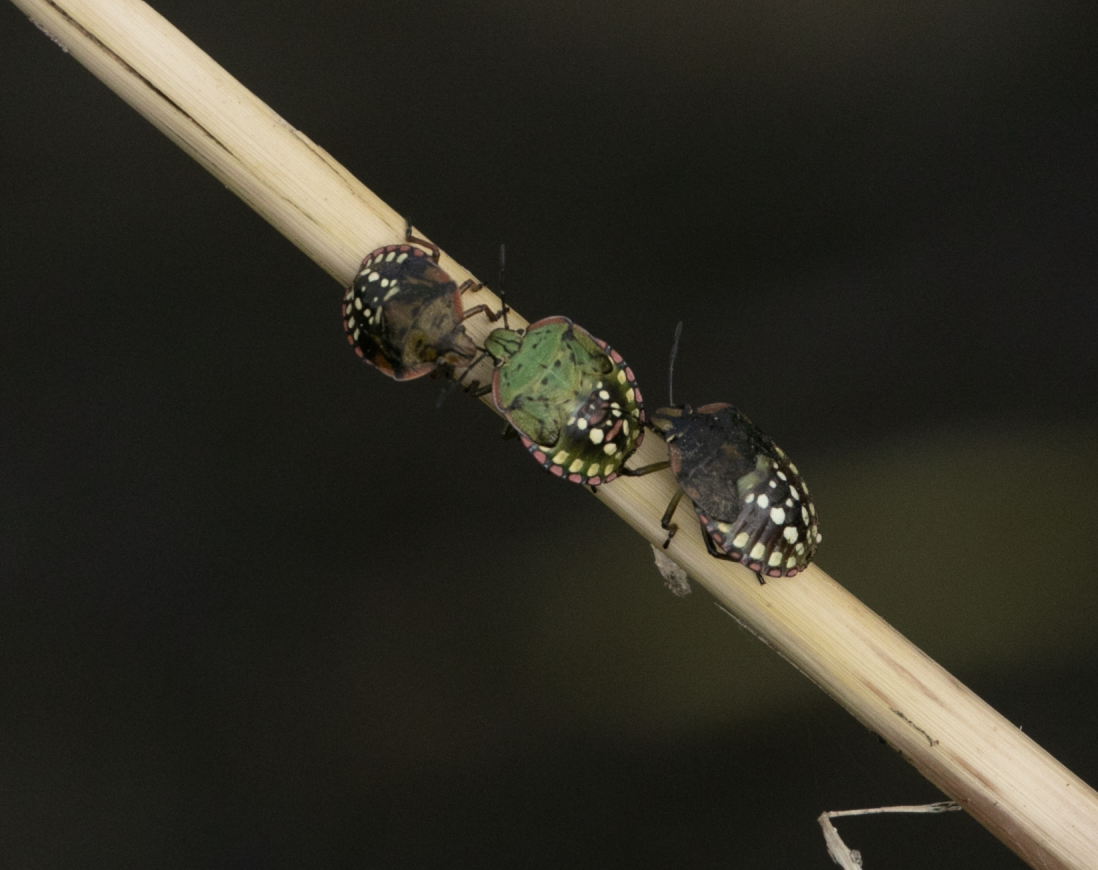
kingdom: Animalia
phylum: Arthropoda
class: Insecta
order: Hemiptera
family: Pentatomidae
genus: Nezara
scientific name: Nezara viridula
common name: Southern green stink bug
